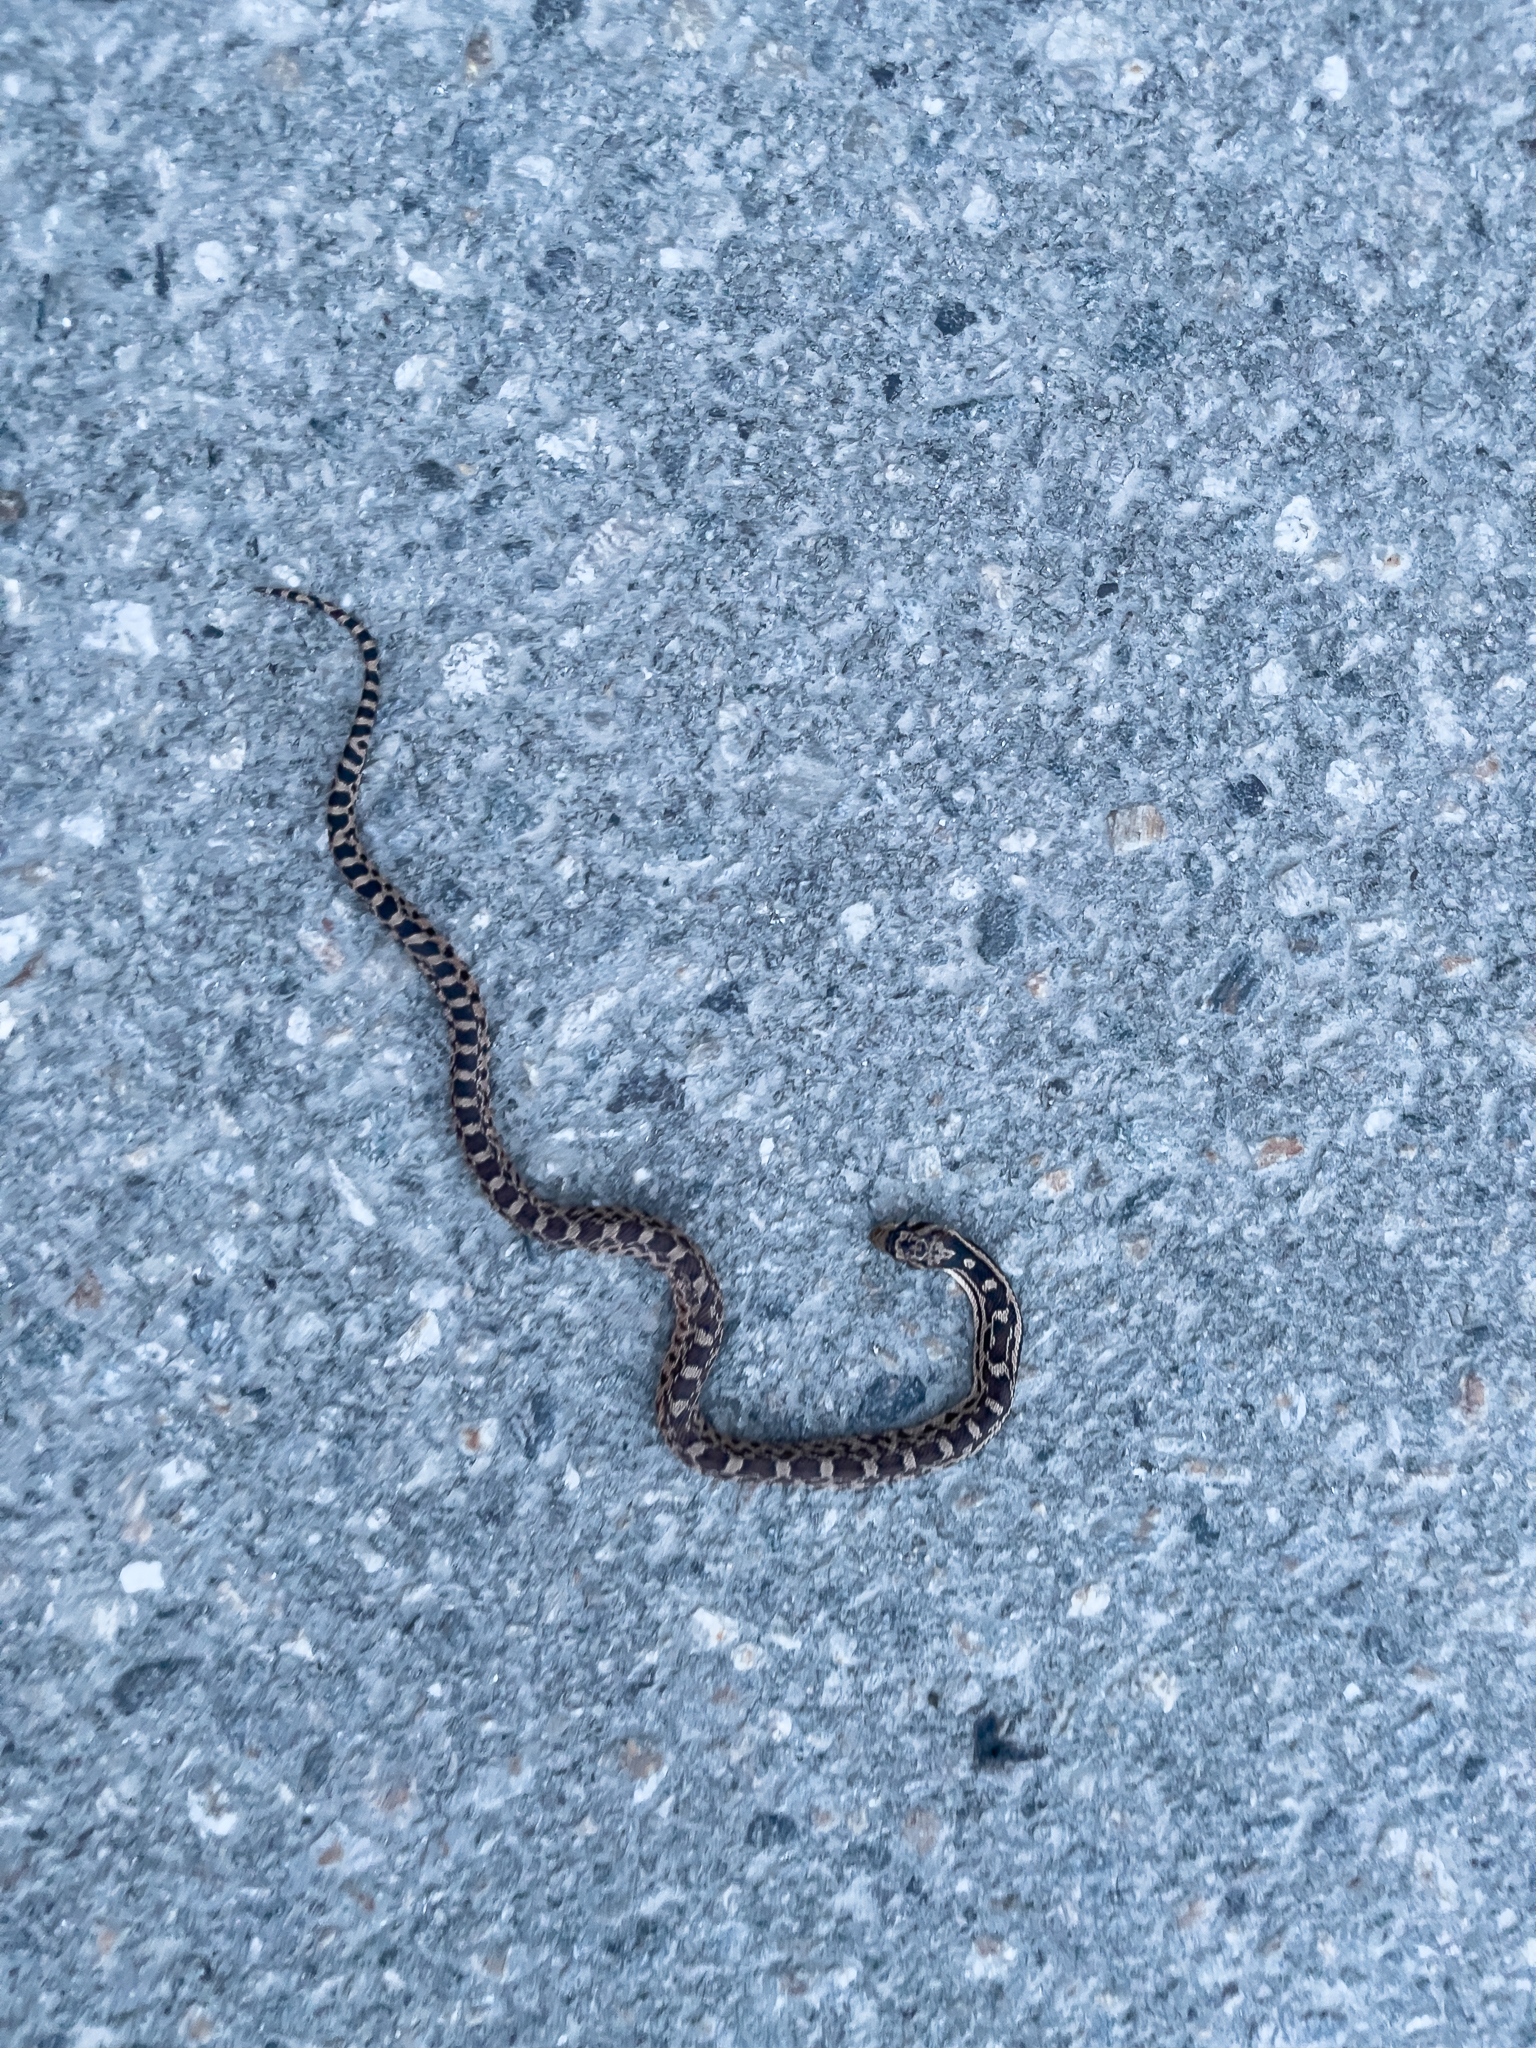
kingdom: Animalia
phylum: Chordata
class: Squamata
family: Colubridae
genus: Pituophis
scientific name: Pituophis catenifer
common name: Gopher snake
